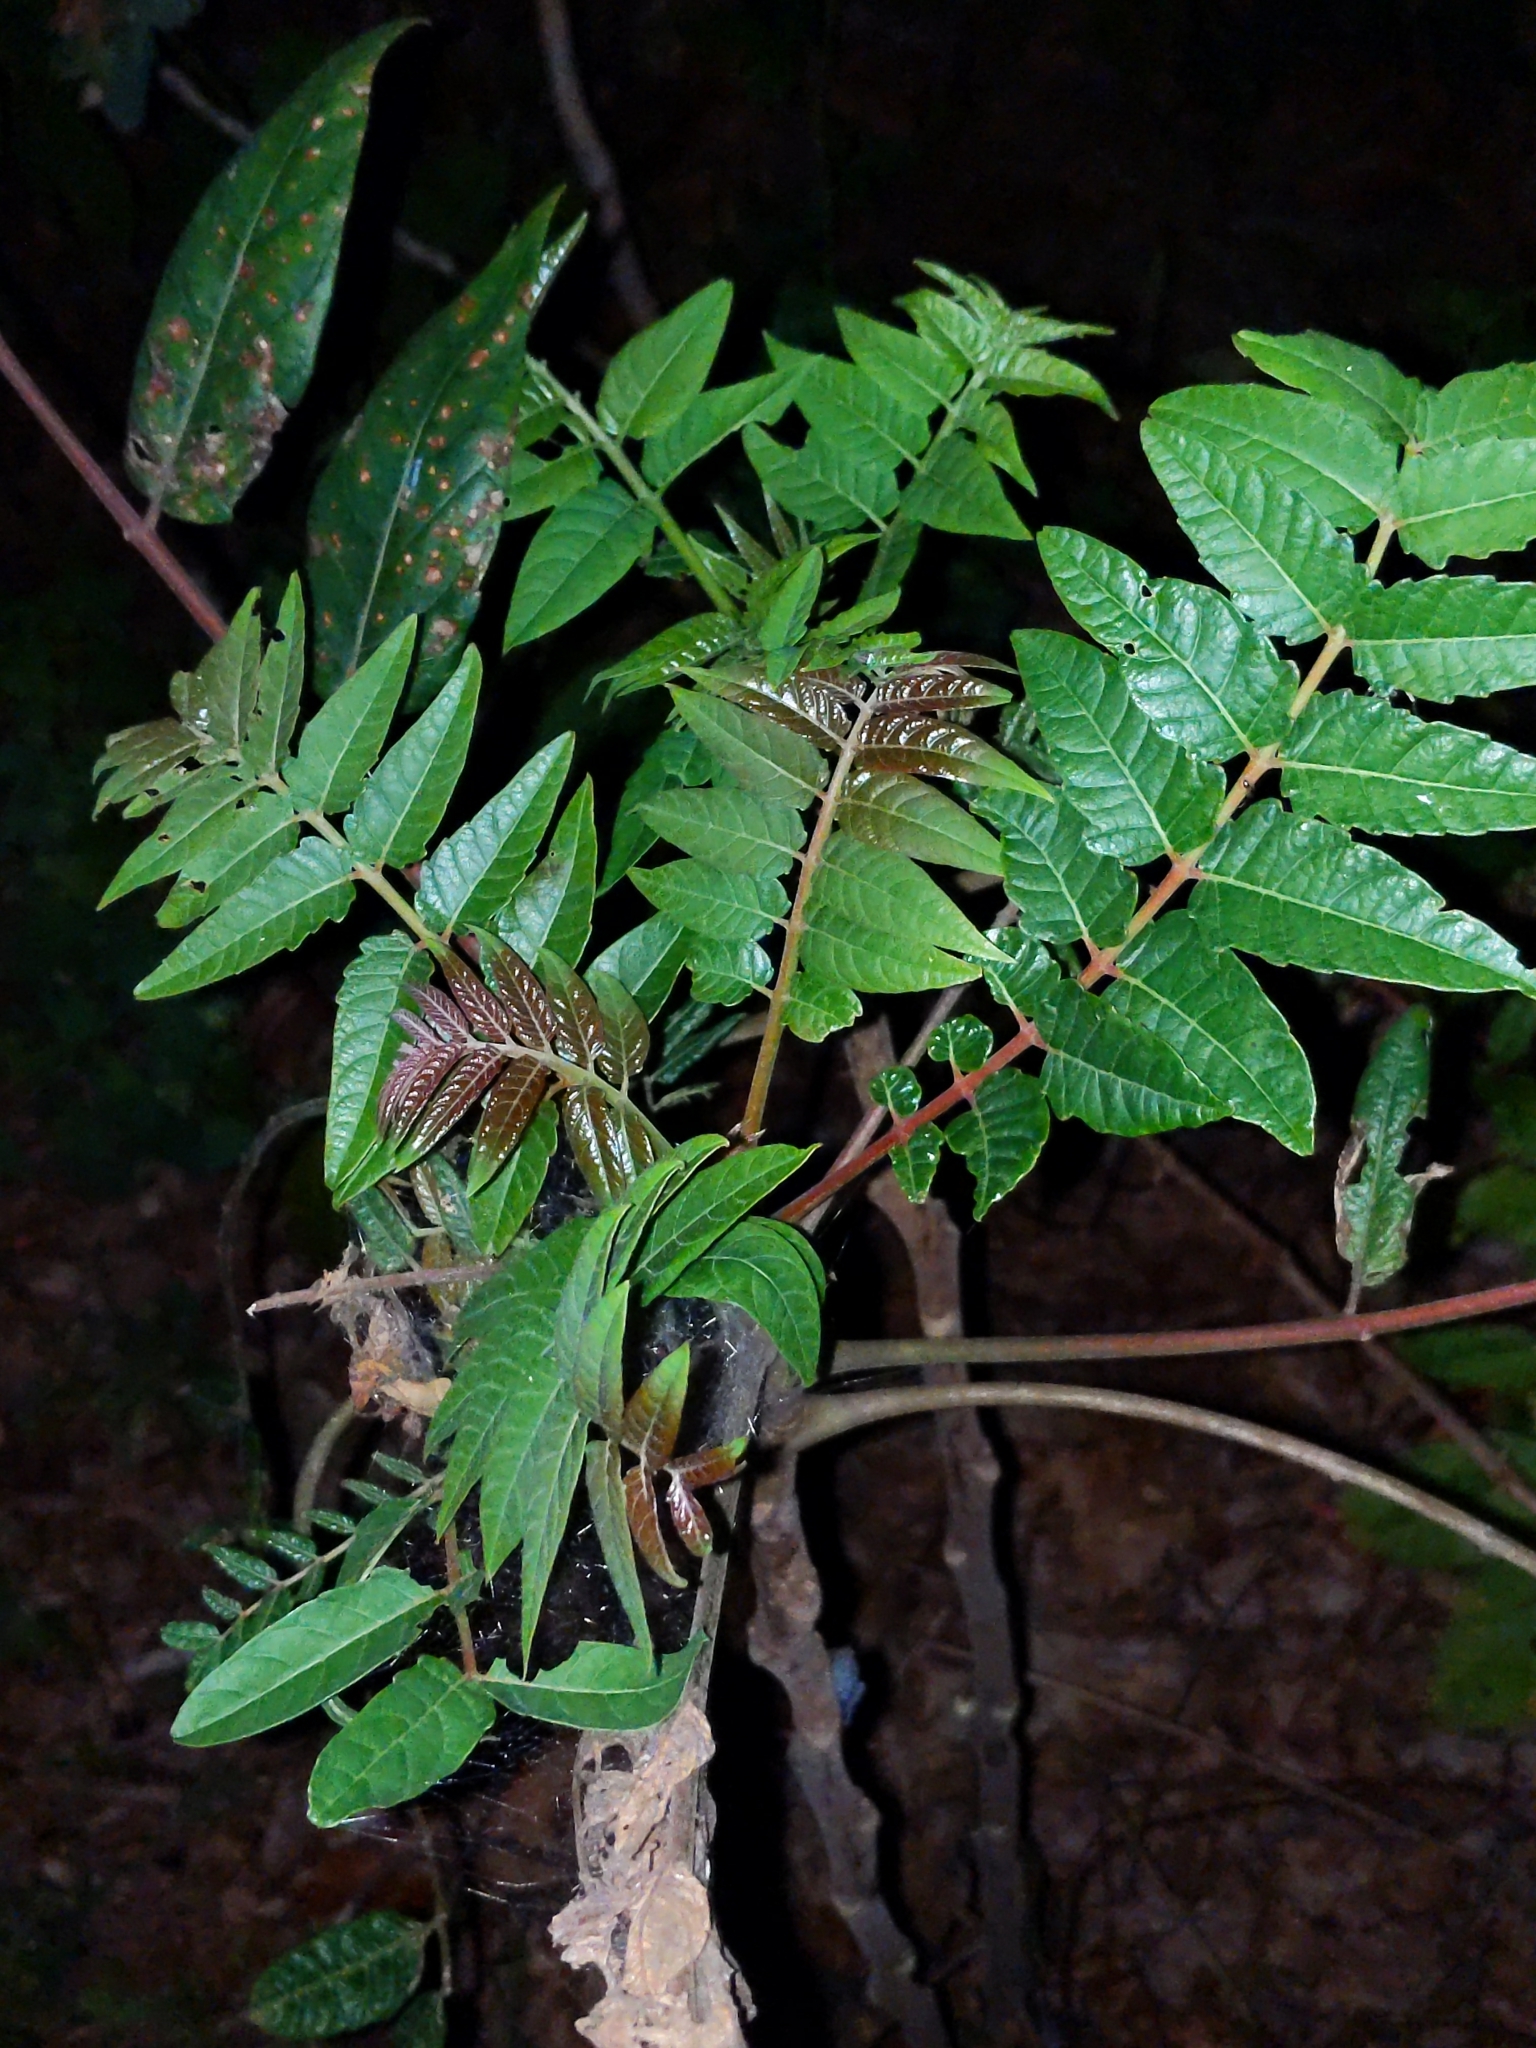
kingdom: Plantae
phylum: Tracheophyta
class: Magnoliopsida
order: Sapindales
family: Simaroubaceae
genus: Ailanthus
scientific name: Ailanthus altissima
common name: Tree-of-heaven
